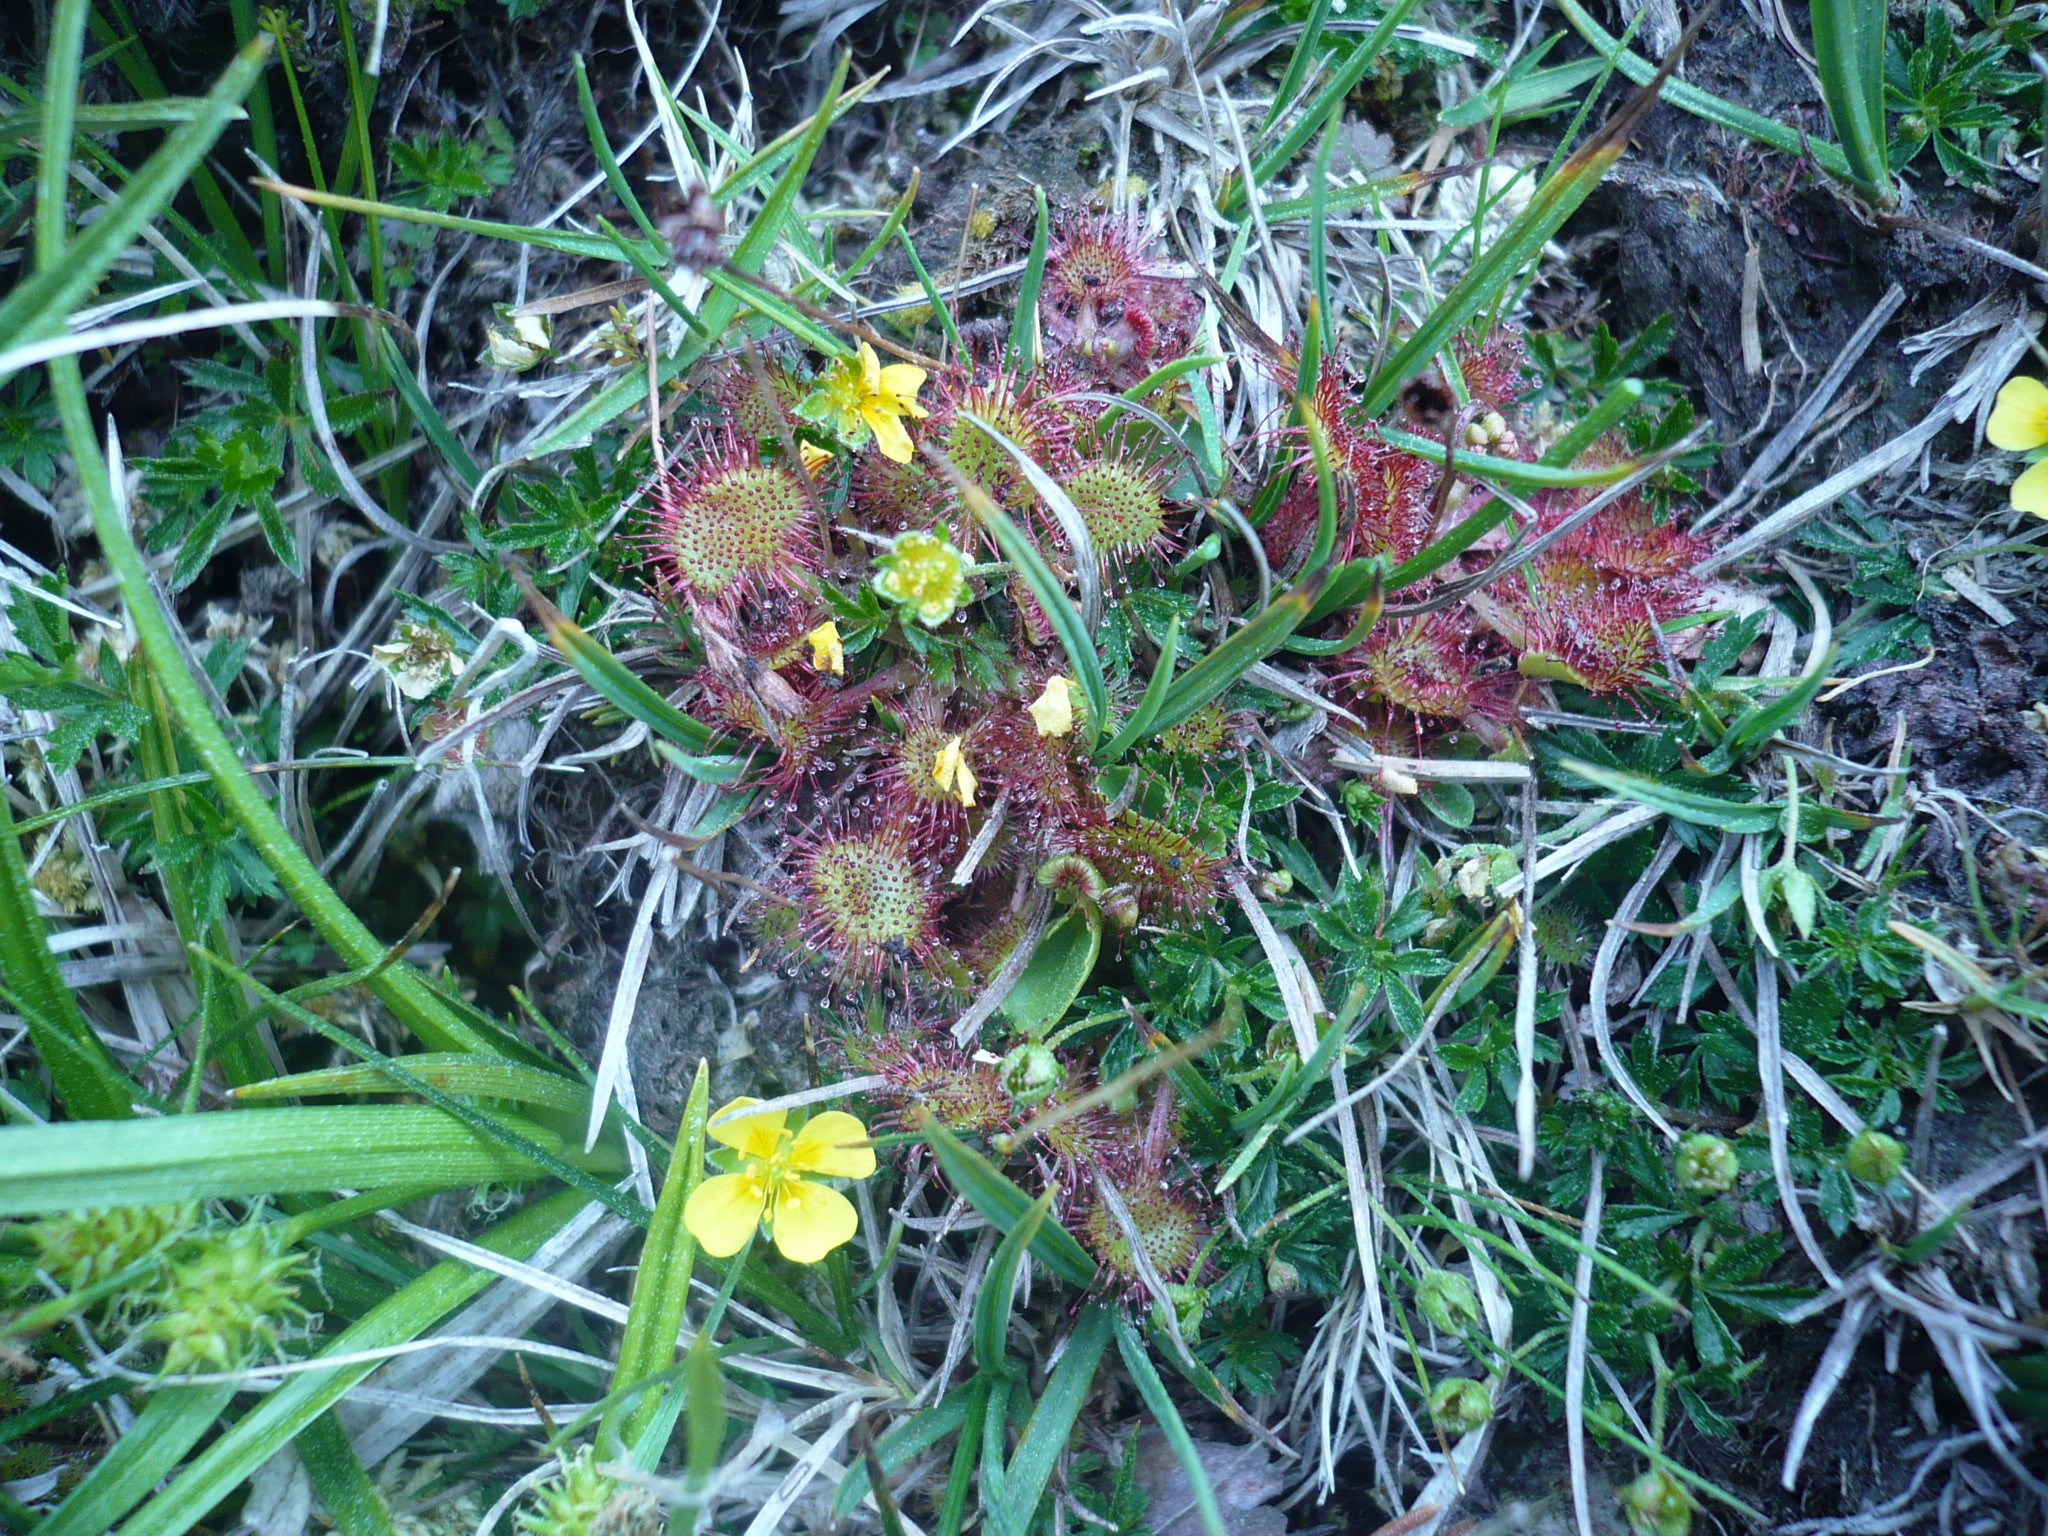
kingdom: Plantae
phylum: Tracheophyta
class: Magnoliopsida
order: Caryophyllales
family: Droseraceae
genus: Drosera
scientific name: Drosera rotundifolia
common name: Round-leaved sundew
